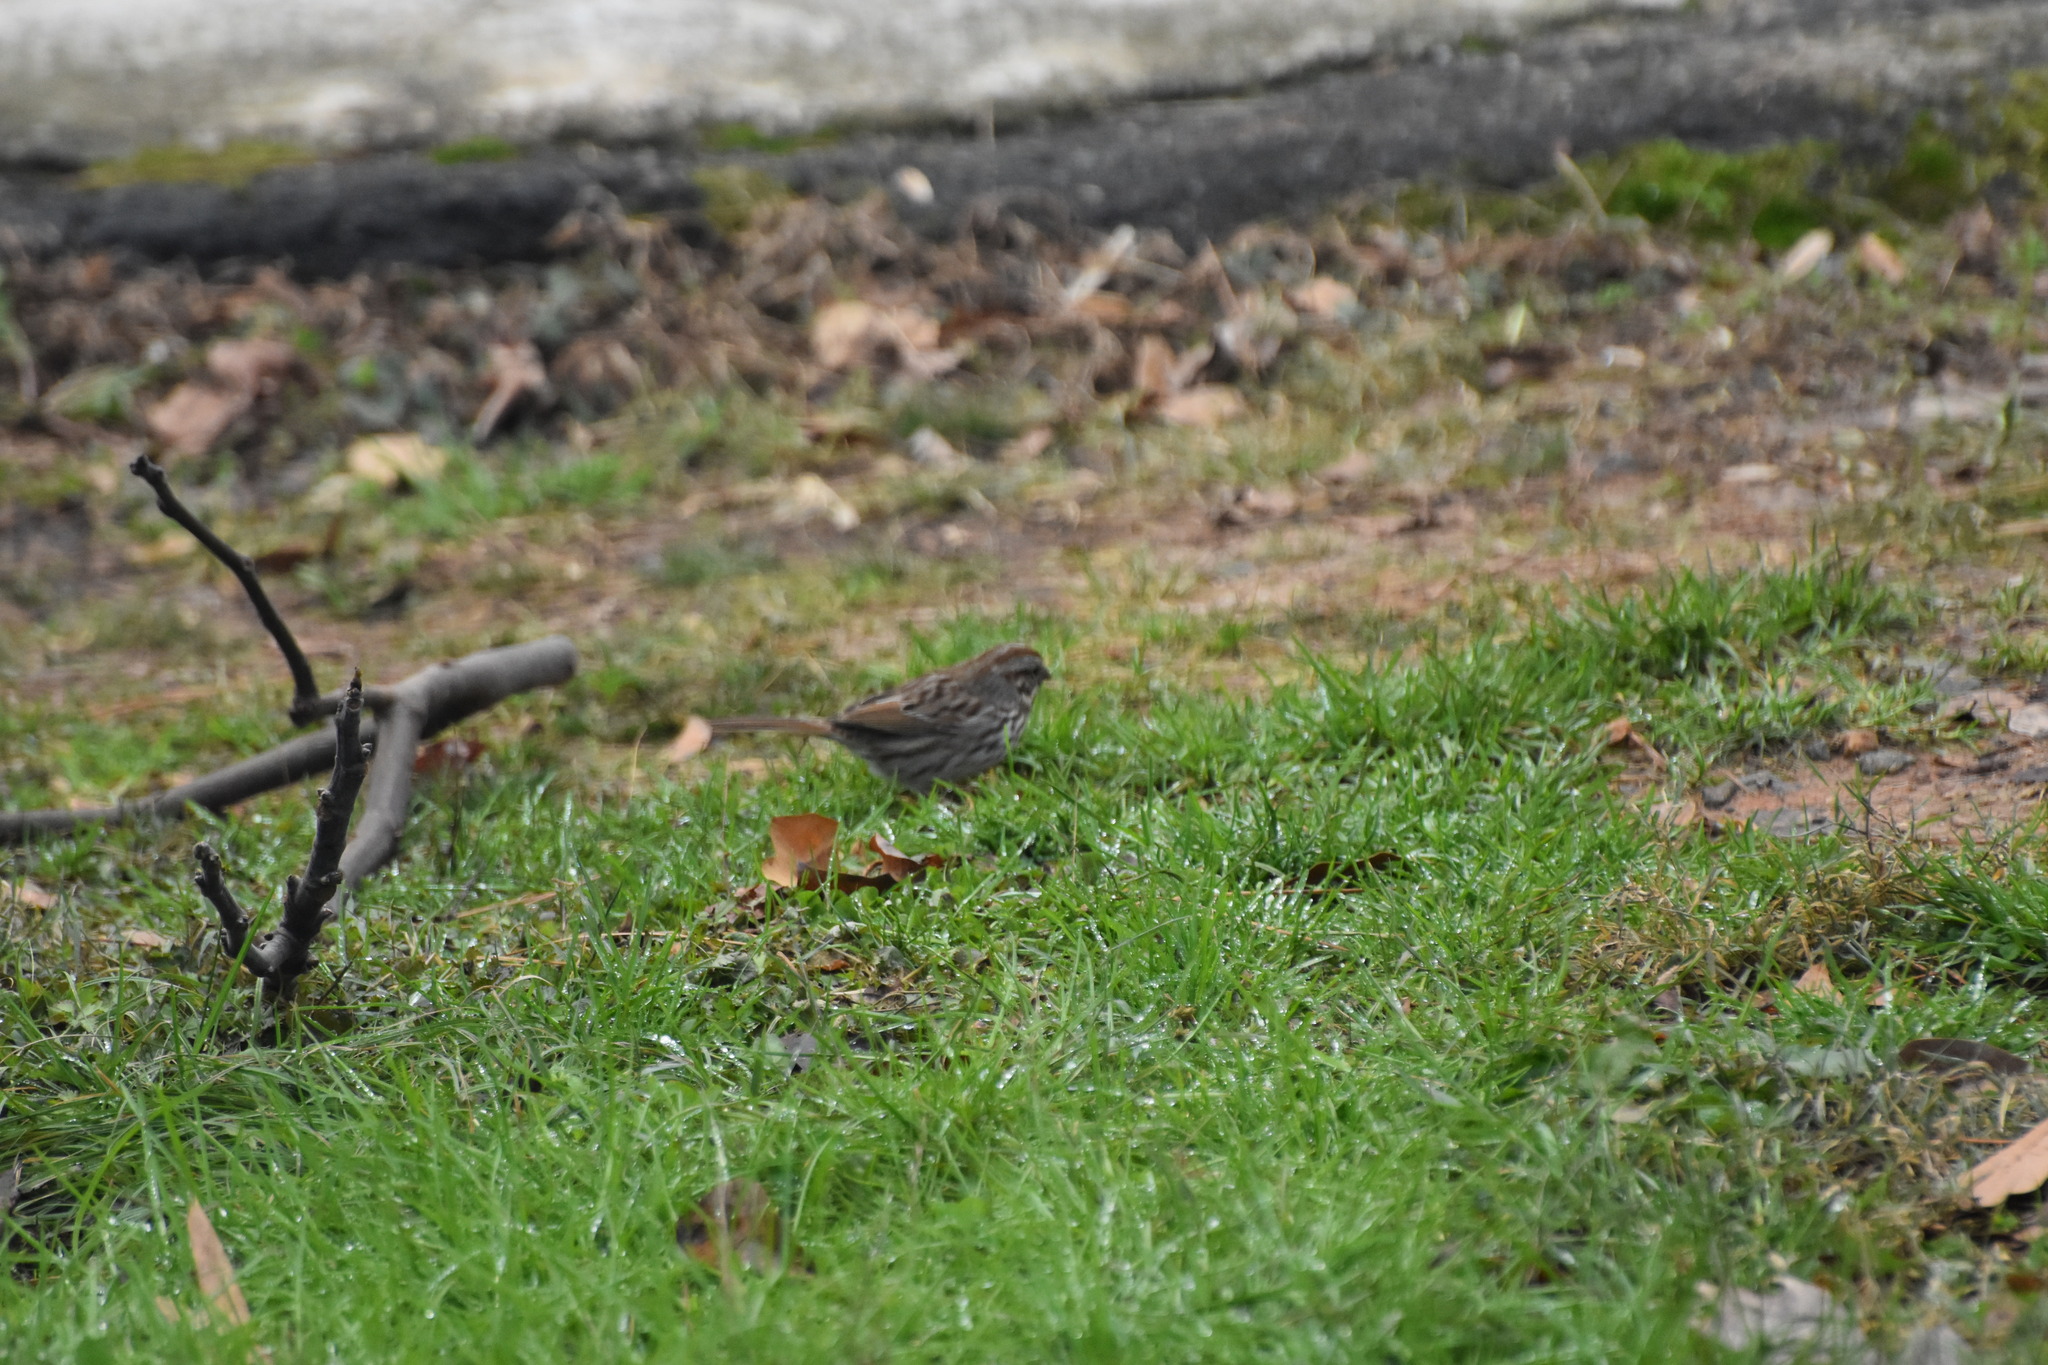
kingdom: Animalia
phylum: Chordata
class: Aves
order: Passeriformes
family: Passerellidae
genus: Melospiza
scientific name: Melospiza melodia
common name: Song sparrow
